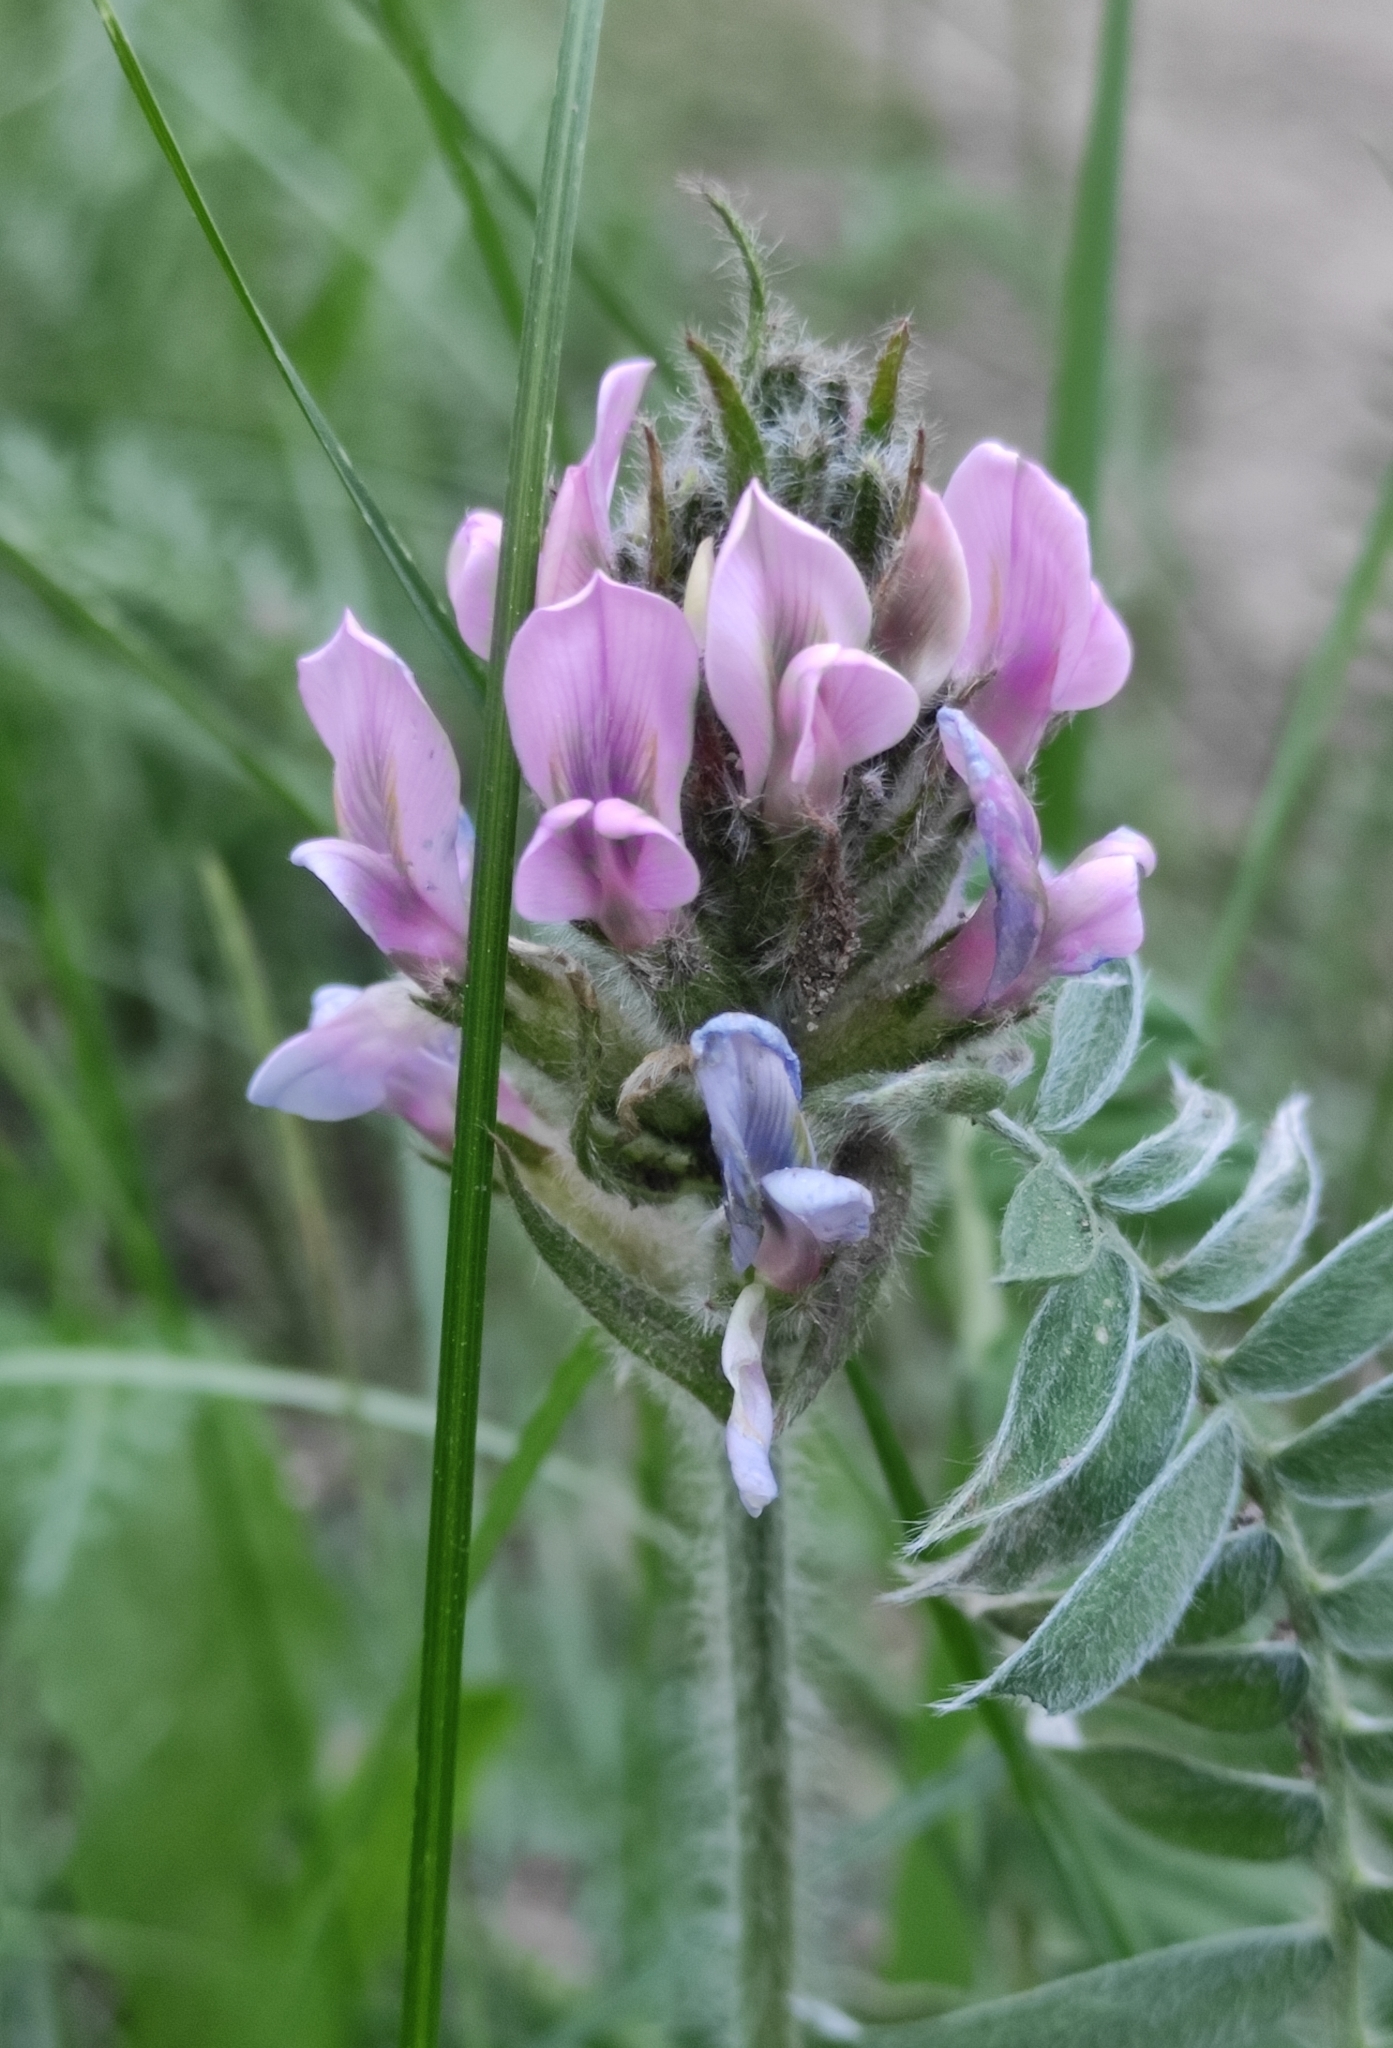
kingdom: Plantae
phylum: Tracheophyta
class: Magnoliopsida
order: Fabales
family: Fabaceae
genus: Oxytropis
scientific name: Oxytropis strobilacea
